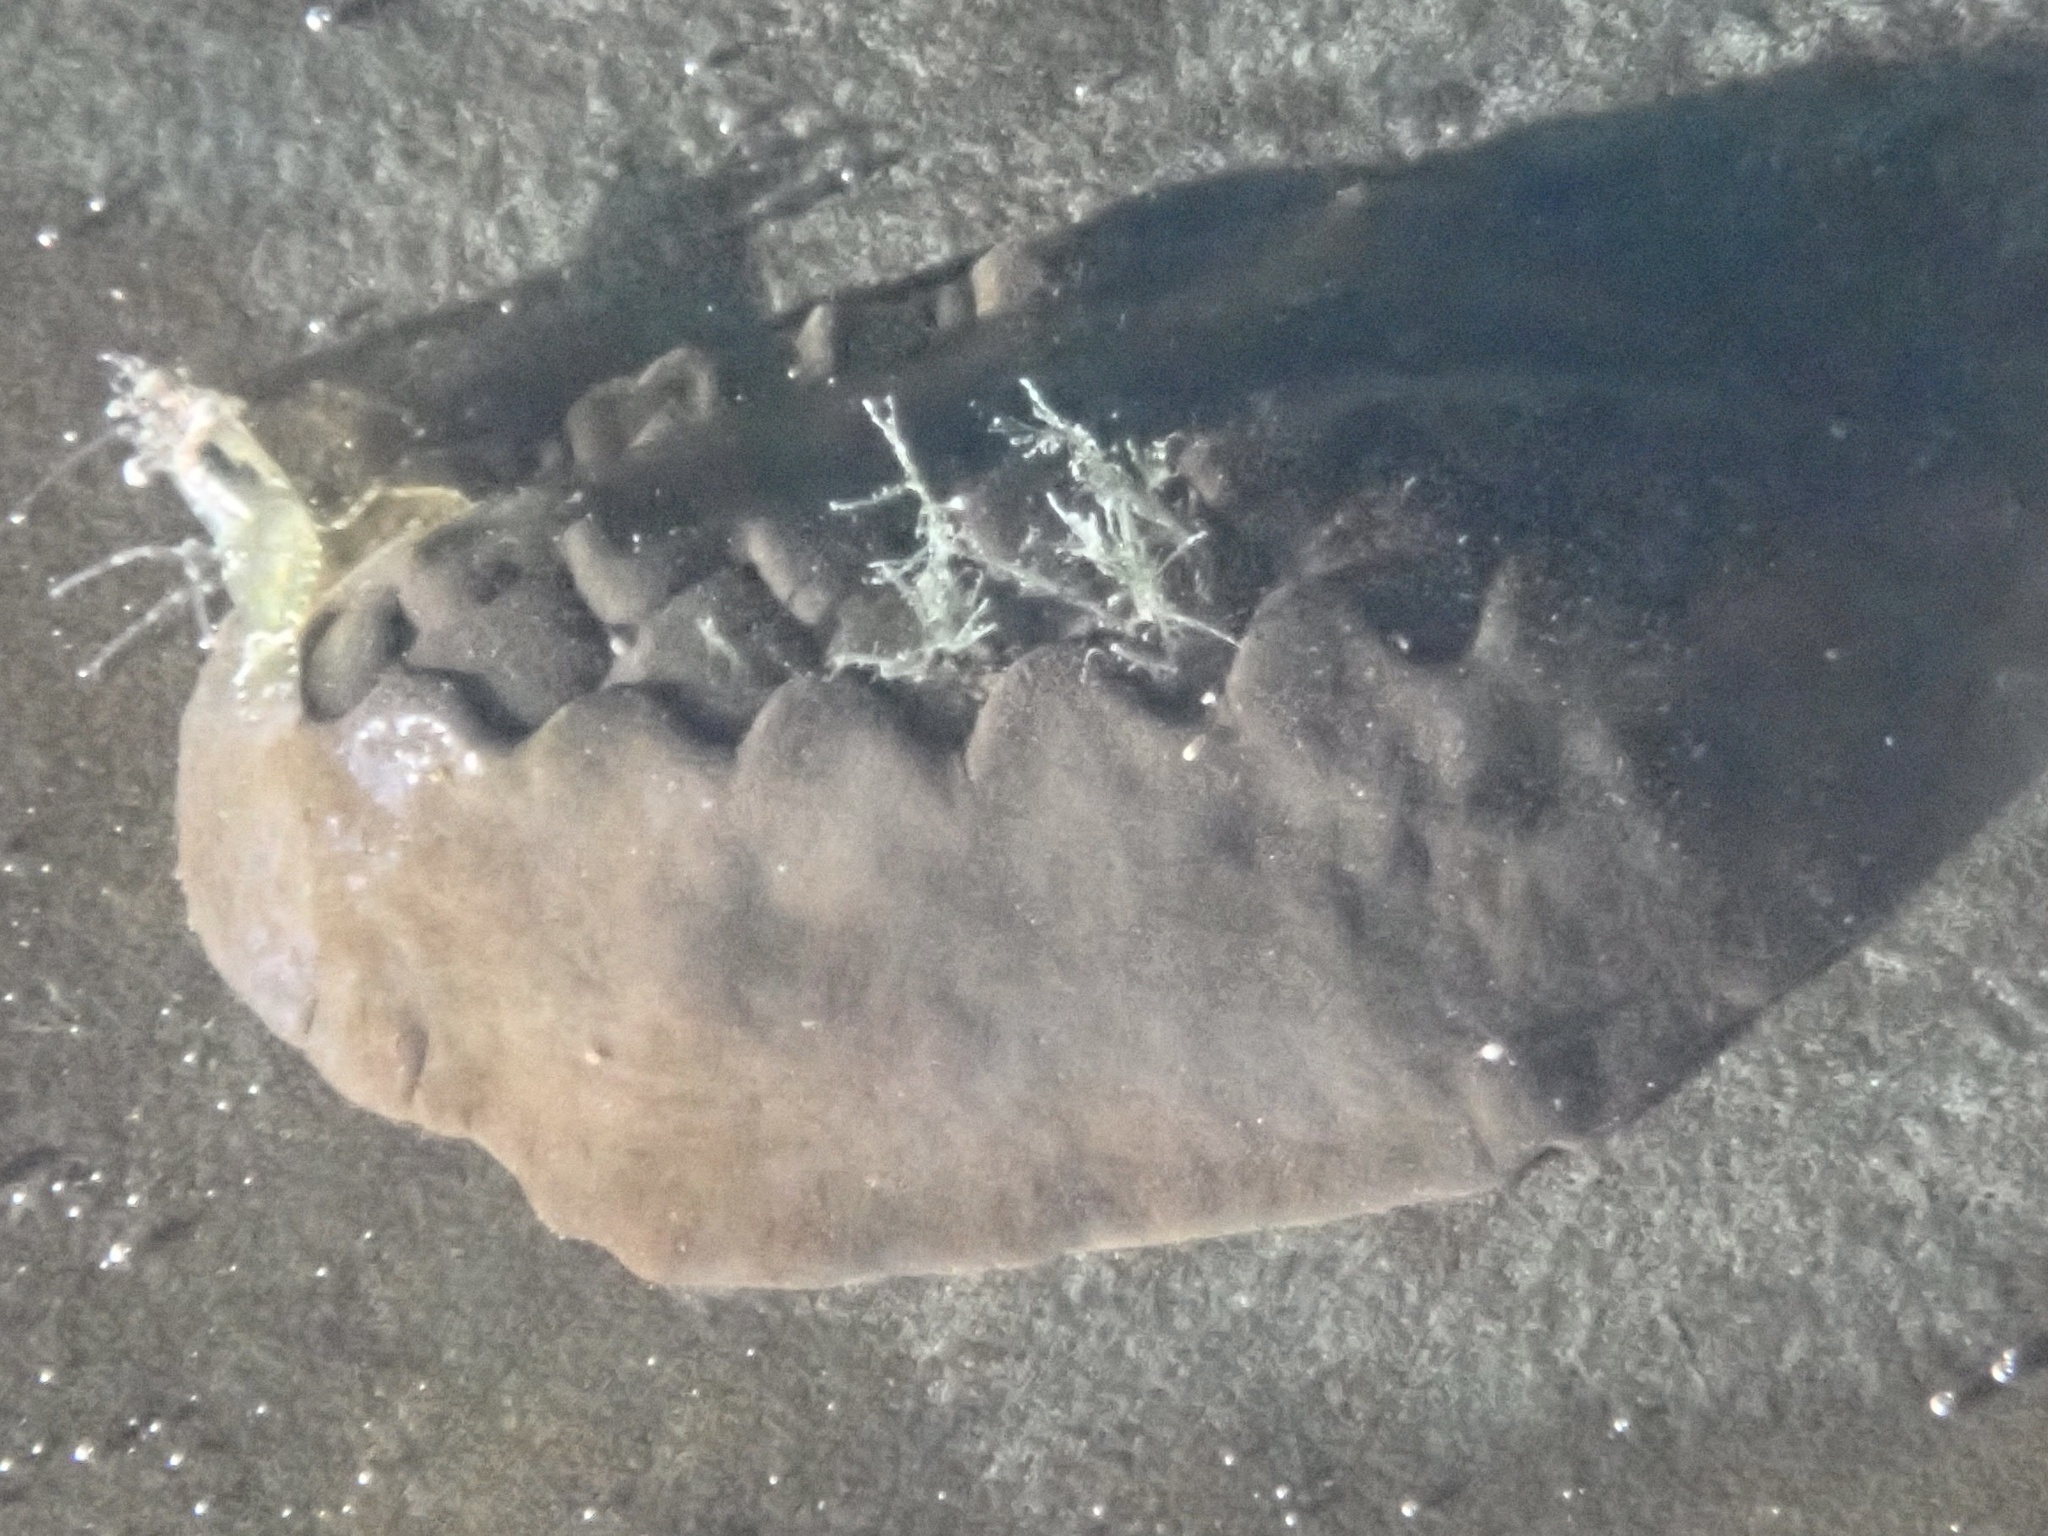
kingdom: Animalia
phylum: Mollusca
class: Polyplacophora
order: Chitonida
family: Mopaliidae
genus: Katharina
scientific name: Katharina tunicata
